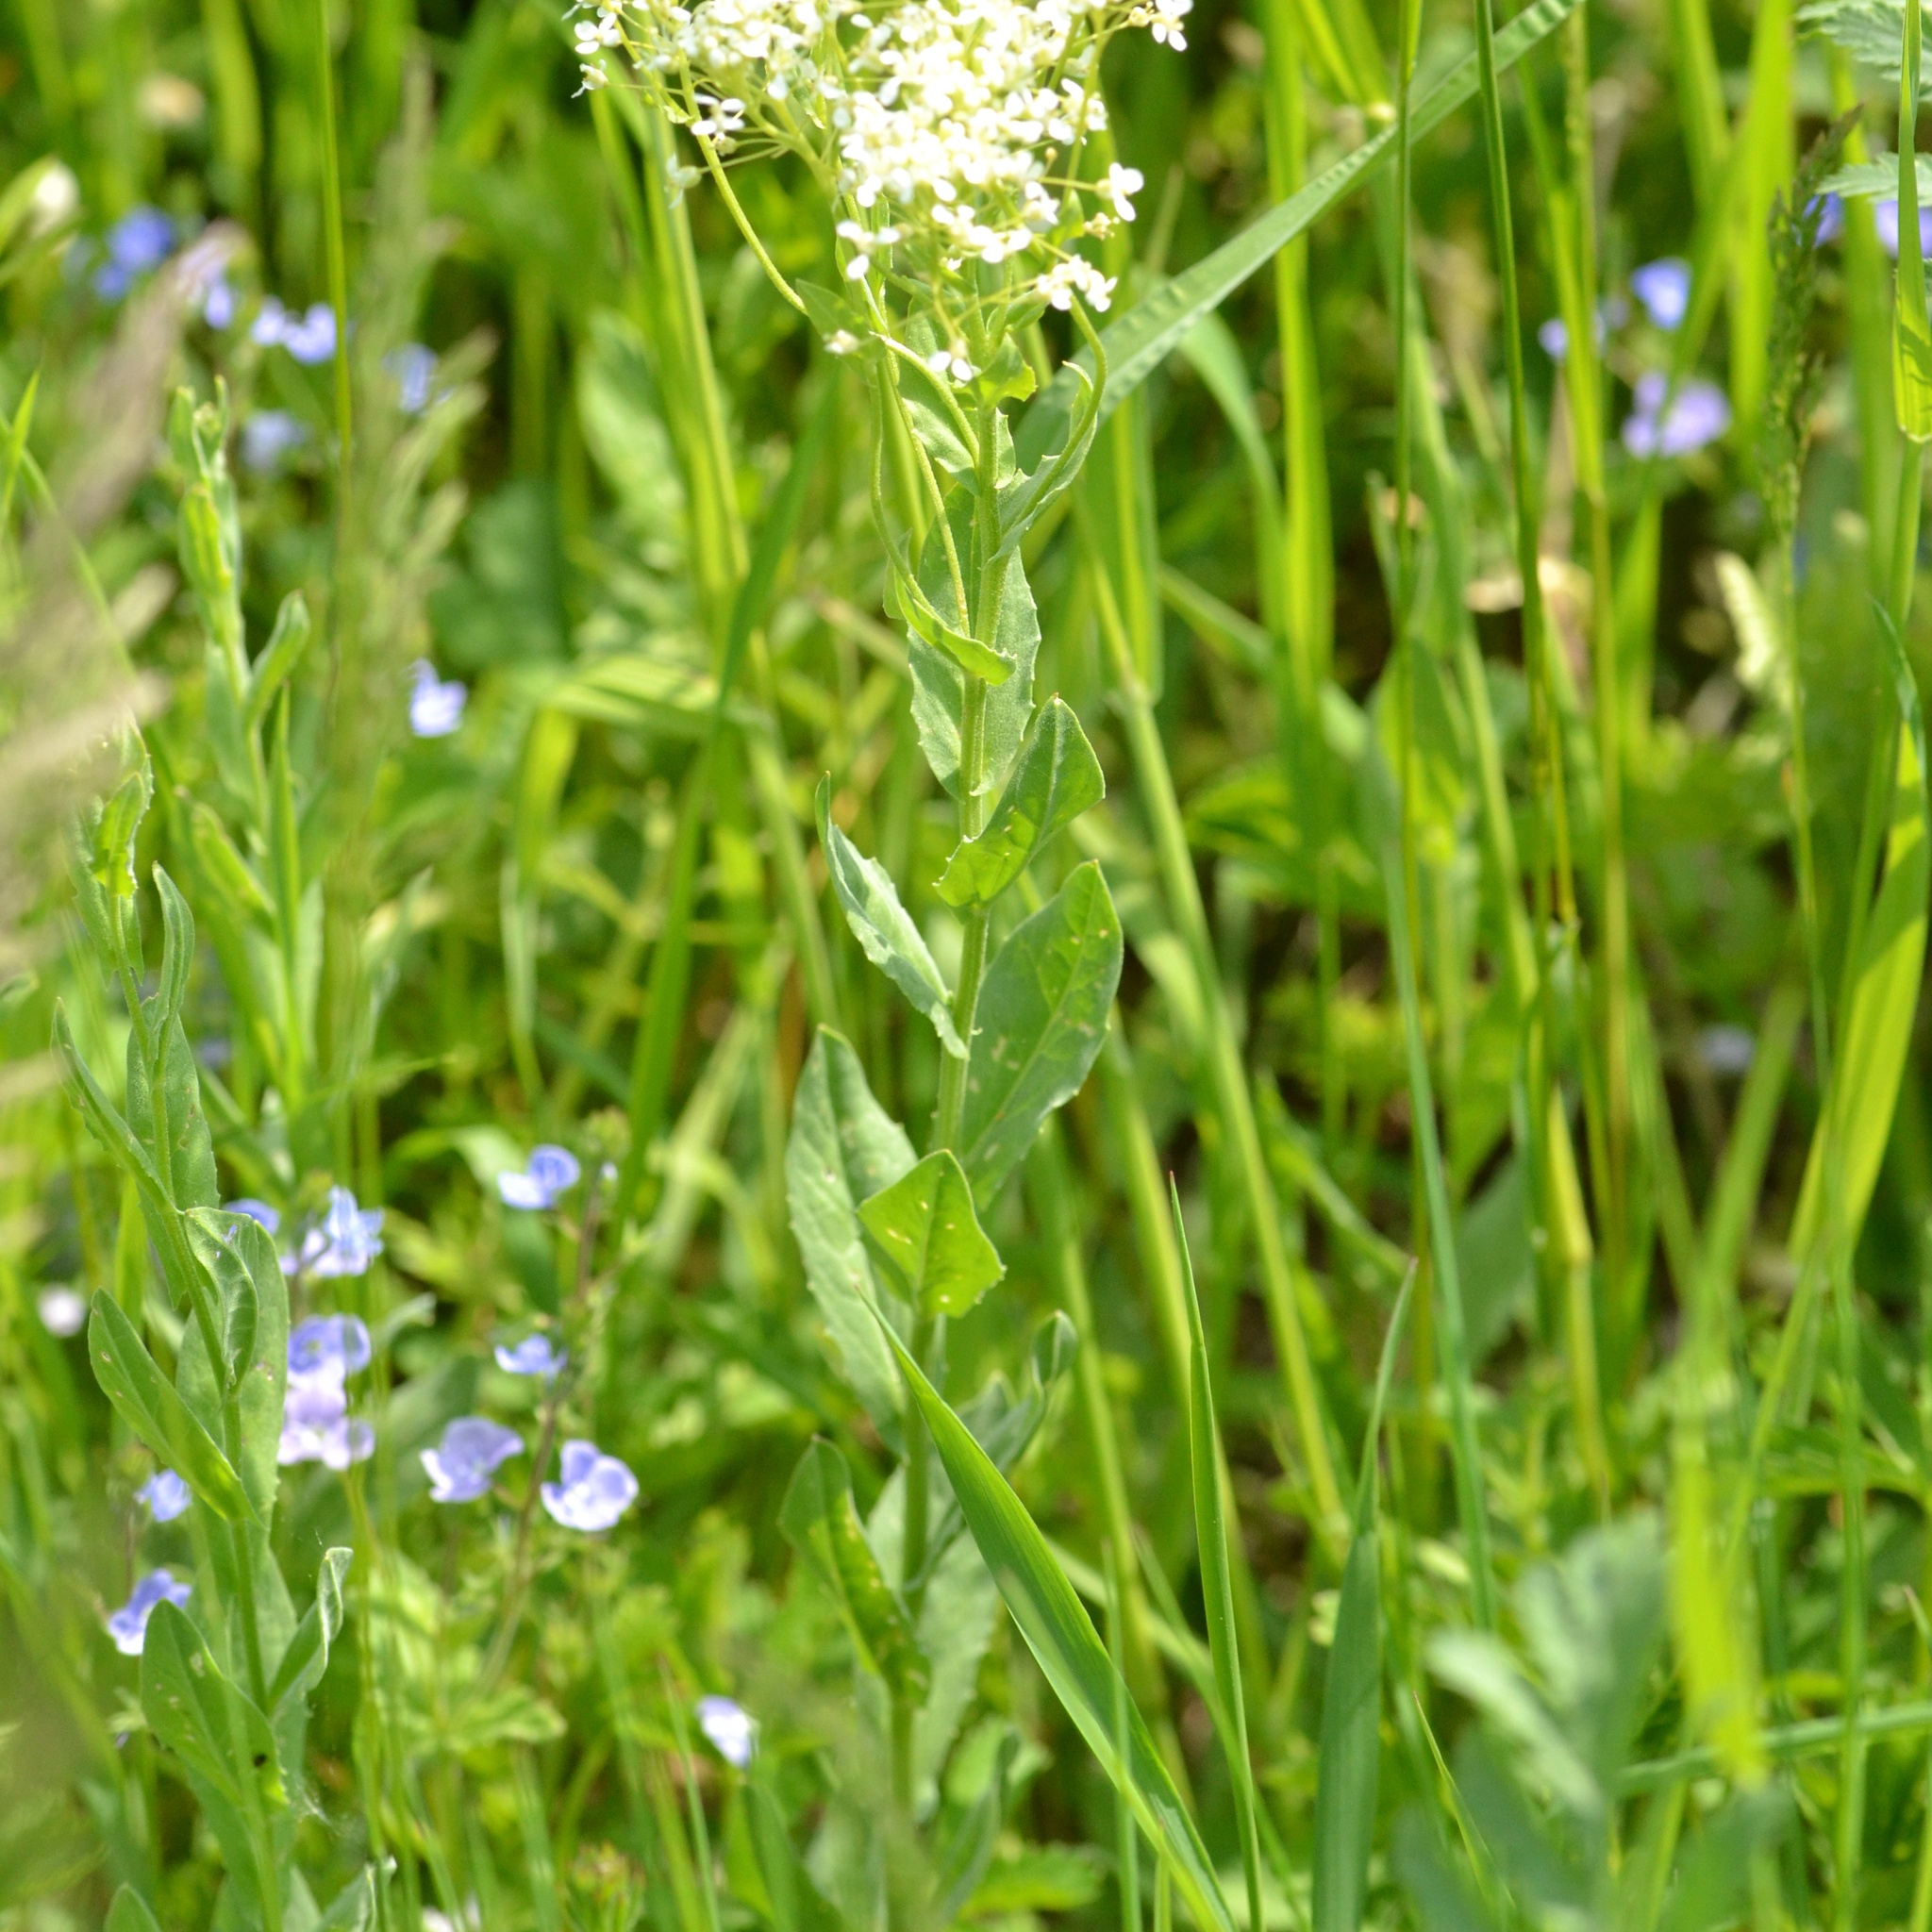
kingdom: Plantae
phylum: Tracheophyta
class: Magnoliopsida
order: Brassicales
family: Brassicaceae
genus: Lepidium
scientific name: Lepidium draba
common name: Hoary cress
